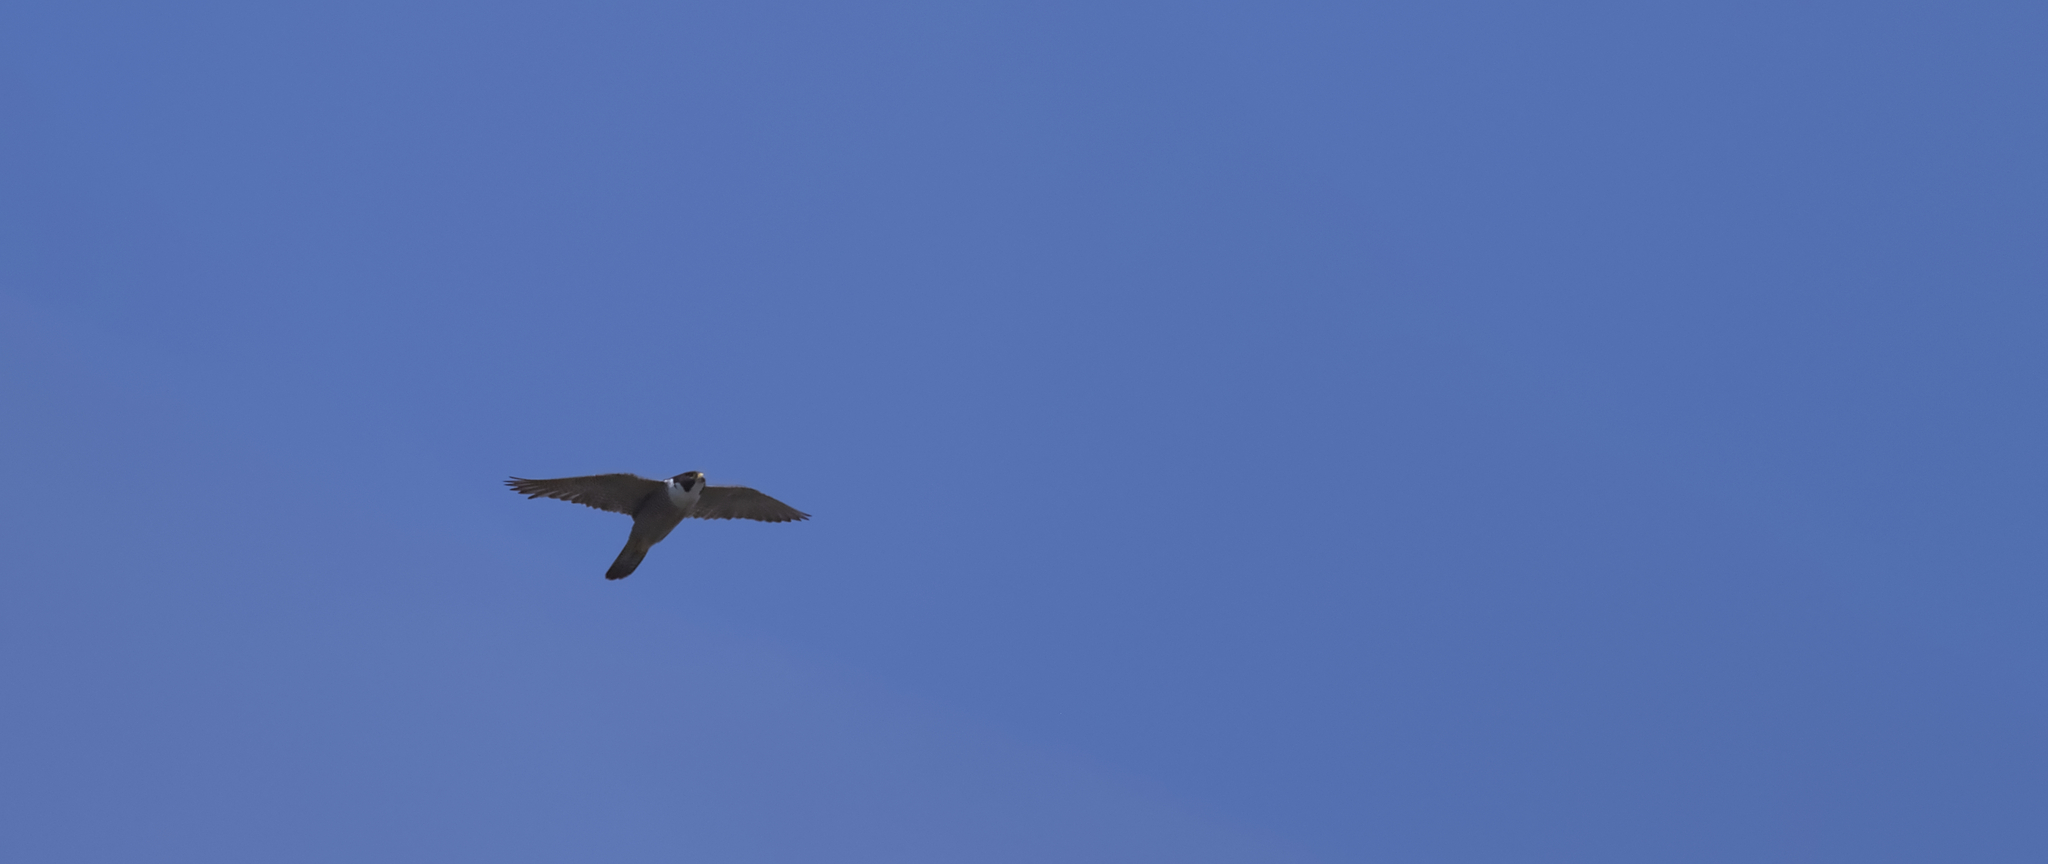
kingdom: Animalia
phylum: Chordata
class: Aves
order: Falconiformes
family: Falconidae
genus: Falco
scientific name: Falco peregrinus
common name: Peregrine falcon
